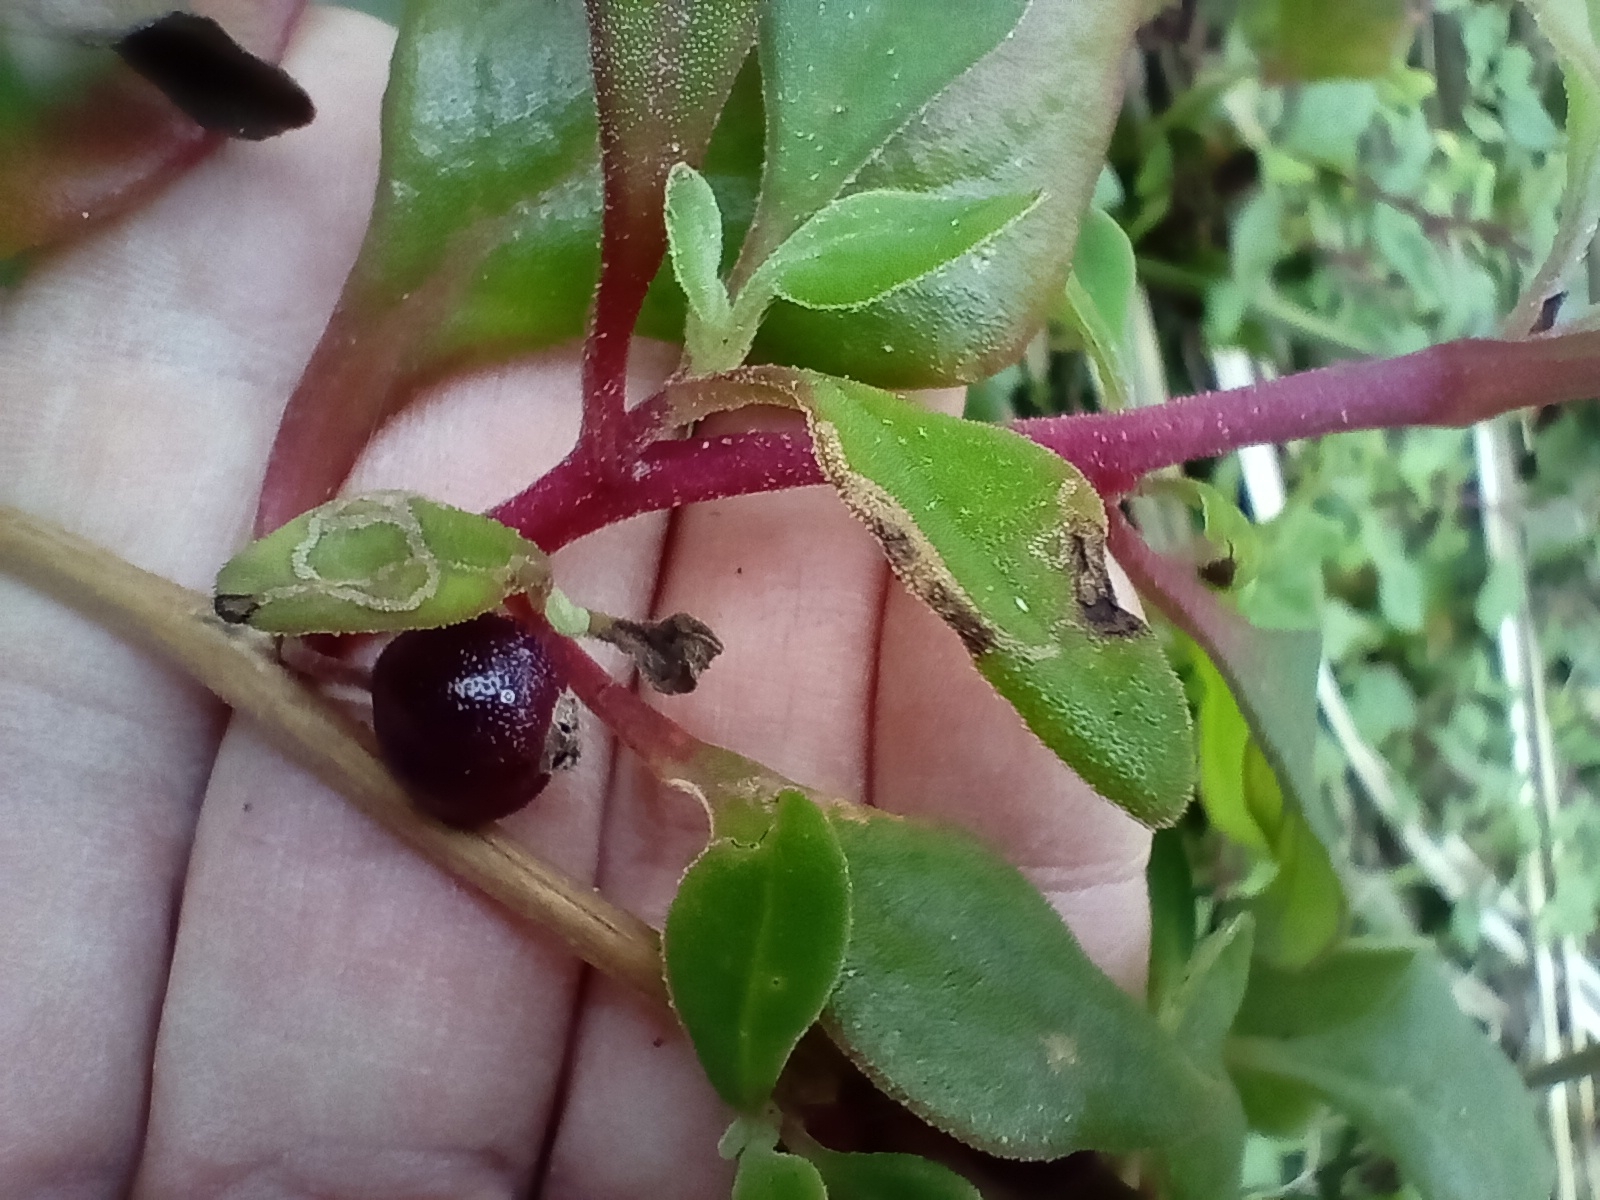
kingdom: Plantae
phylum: Tracheophyta
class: Magnoliopsida
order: Caryophyllales
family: Aizoaceae
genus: Tetragonia
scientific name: Tetragonia implexicoma
